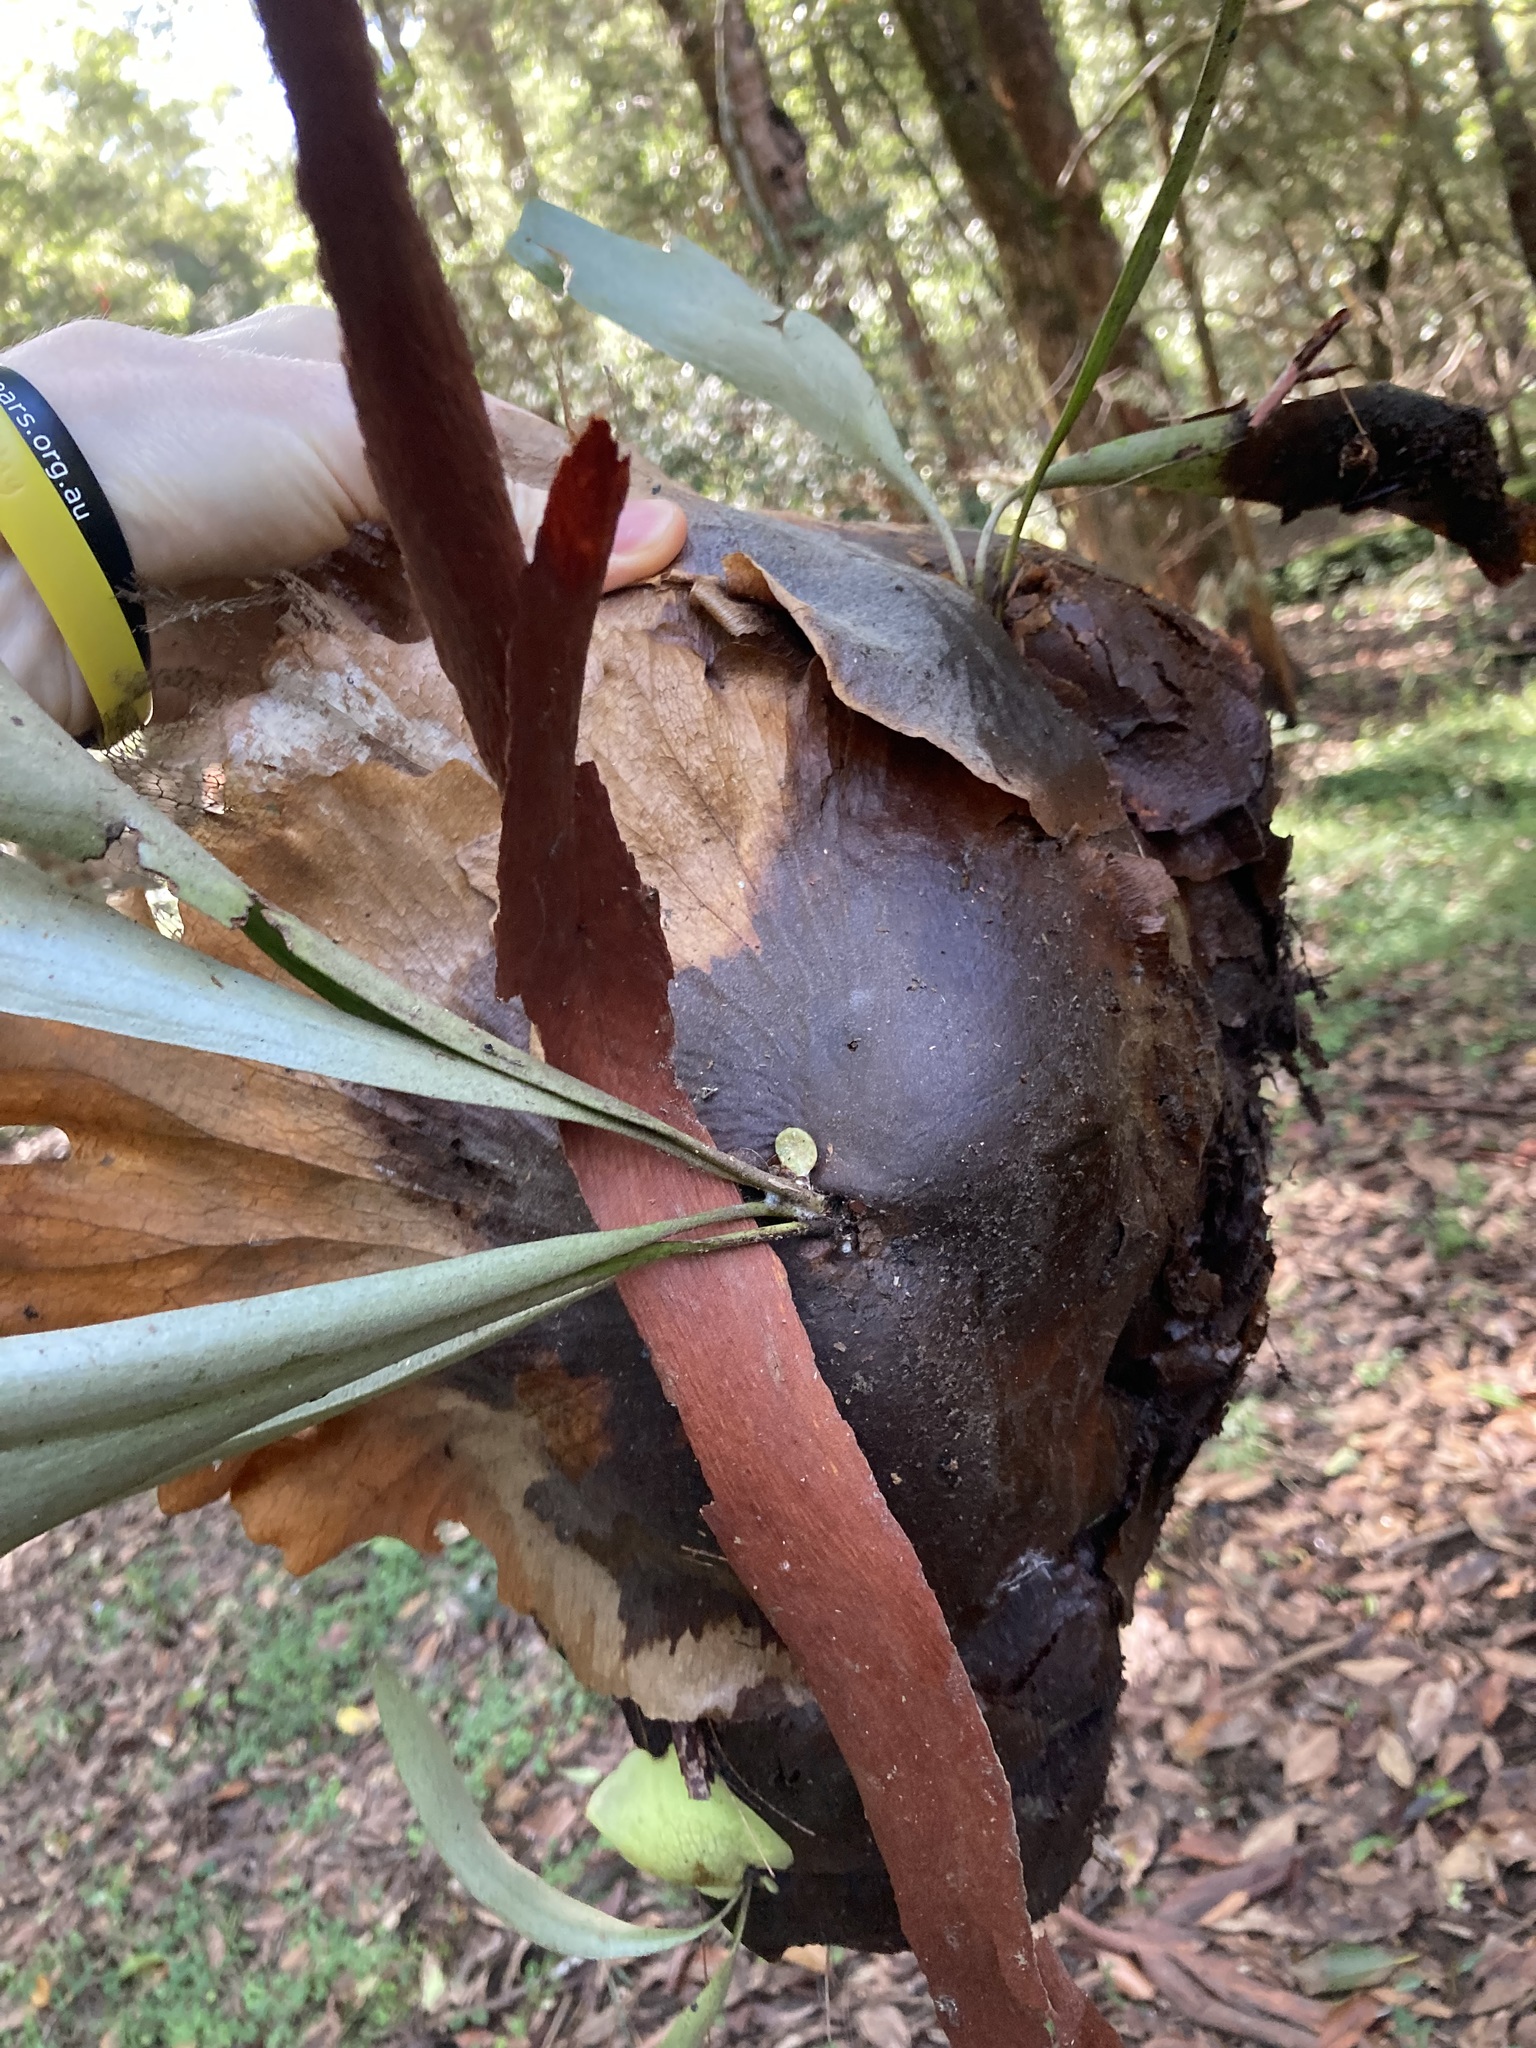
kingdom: Plantae
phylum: Tracheophyta
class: Polypodiopsida
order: Polypodiales
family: Polypodiaceae
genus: Platycerium
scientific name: Platycerium bifurcatum
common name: Elkhorn fern
